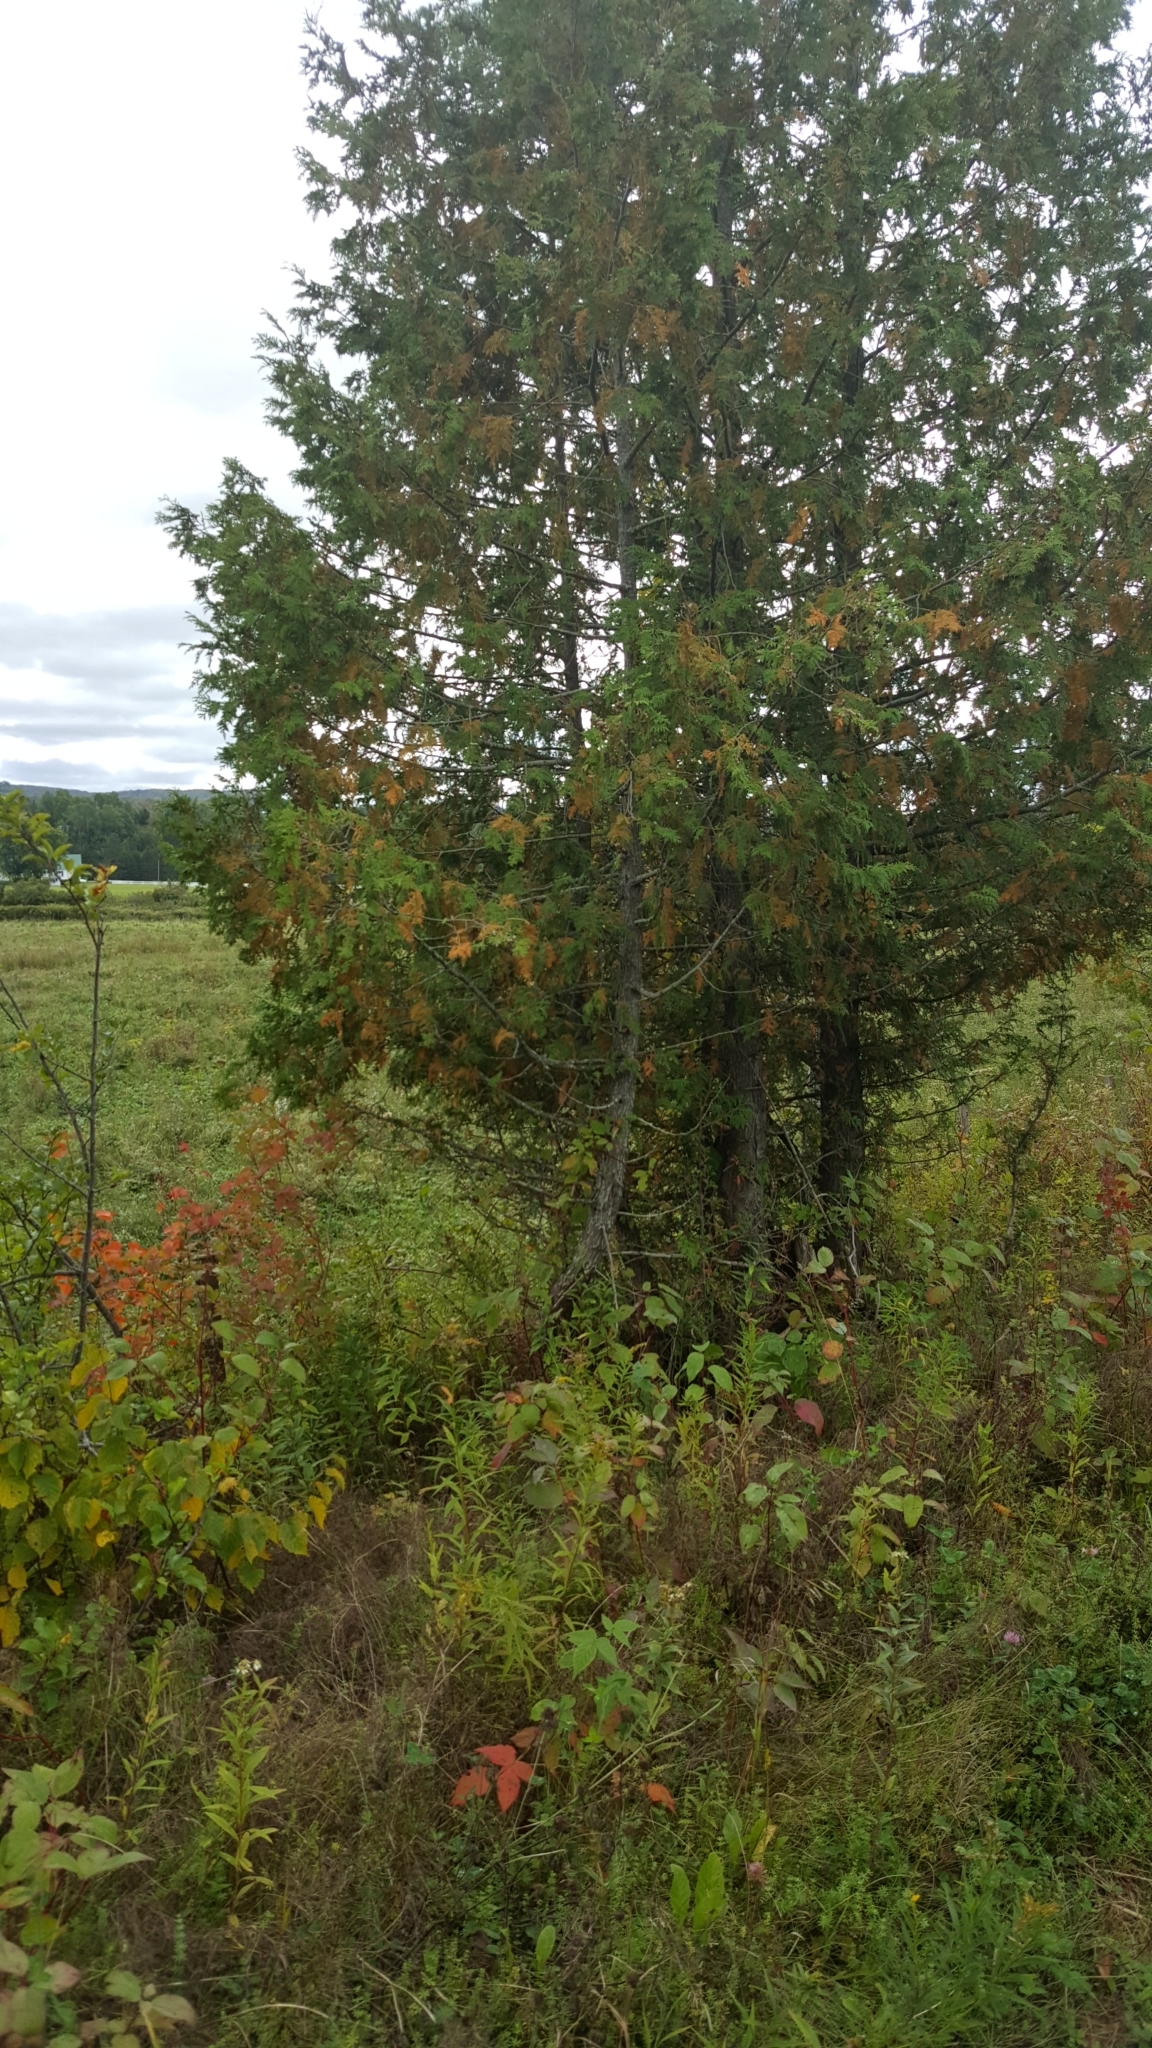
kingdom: Plantae
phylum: Tracheophyta
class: Pinopsida
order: Pinales
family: Cupressaceae
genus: Thuja
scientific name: Thuja occidentalis
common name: Northern white-cedar
